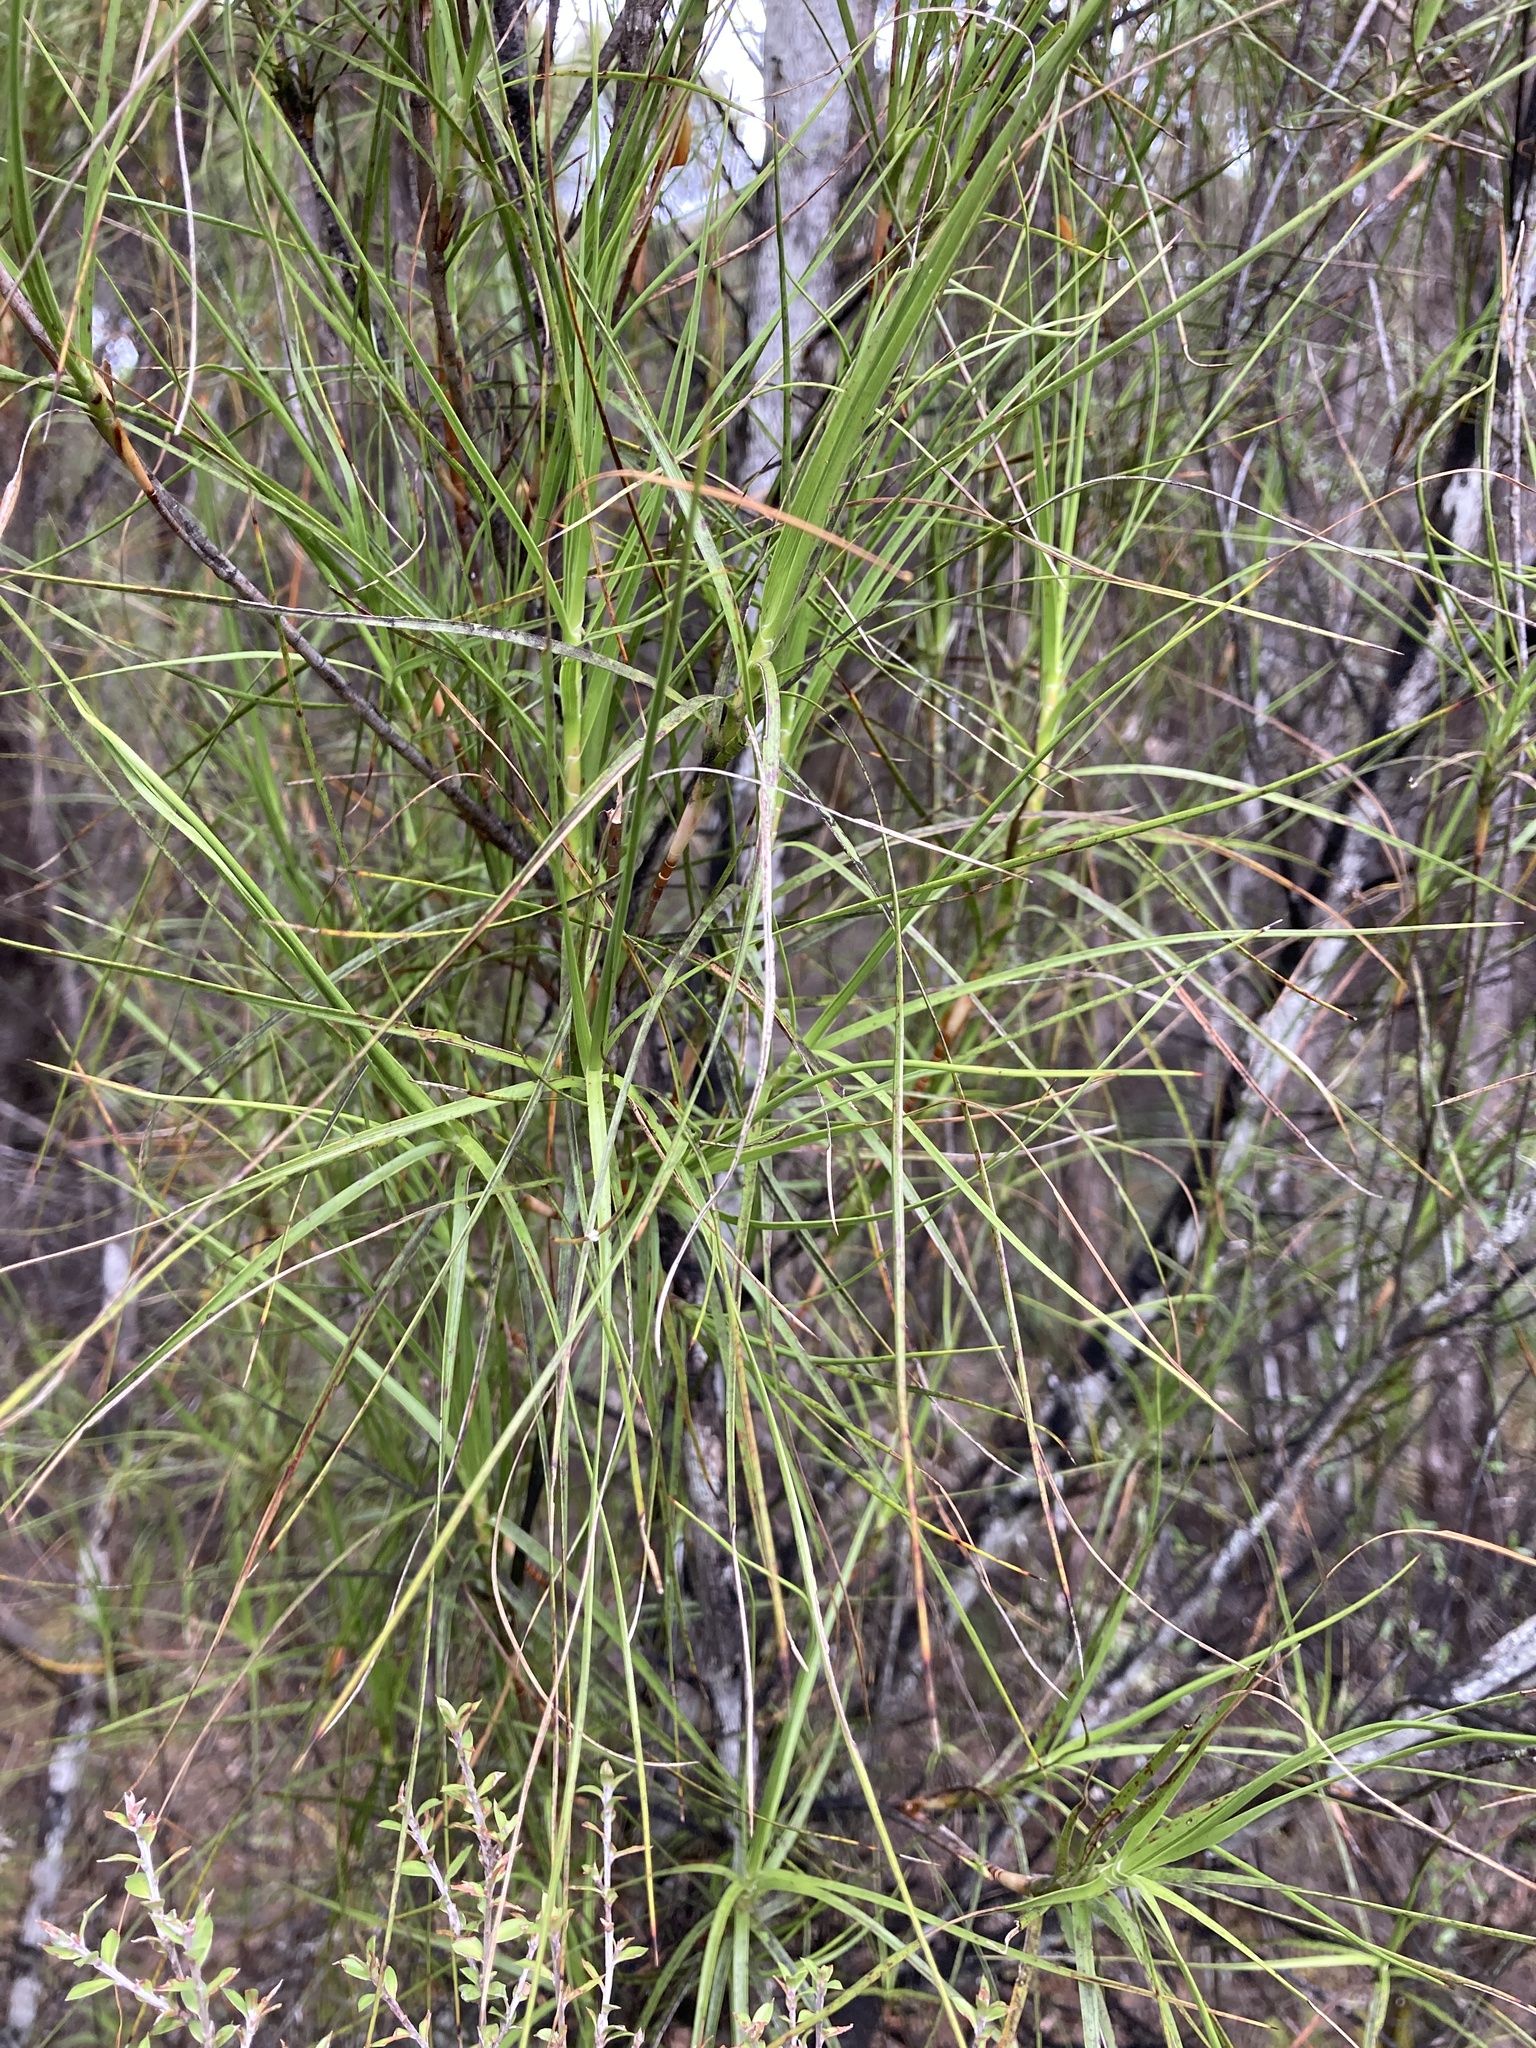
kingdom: Plantae
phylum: Tracheophyta
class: Magnoliopsida
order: Ericales
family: Ericaceae
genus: Dracophyllum
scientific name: Dracophyllum longifolium
